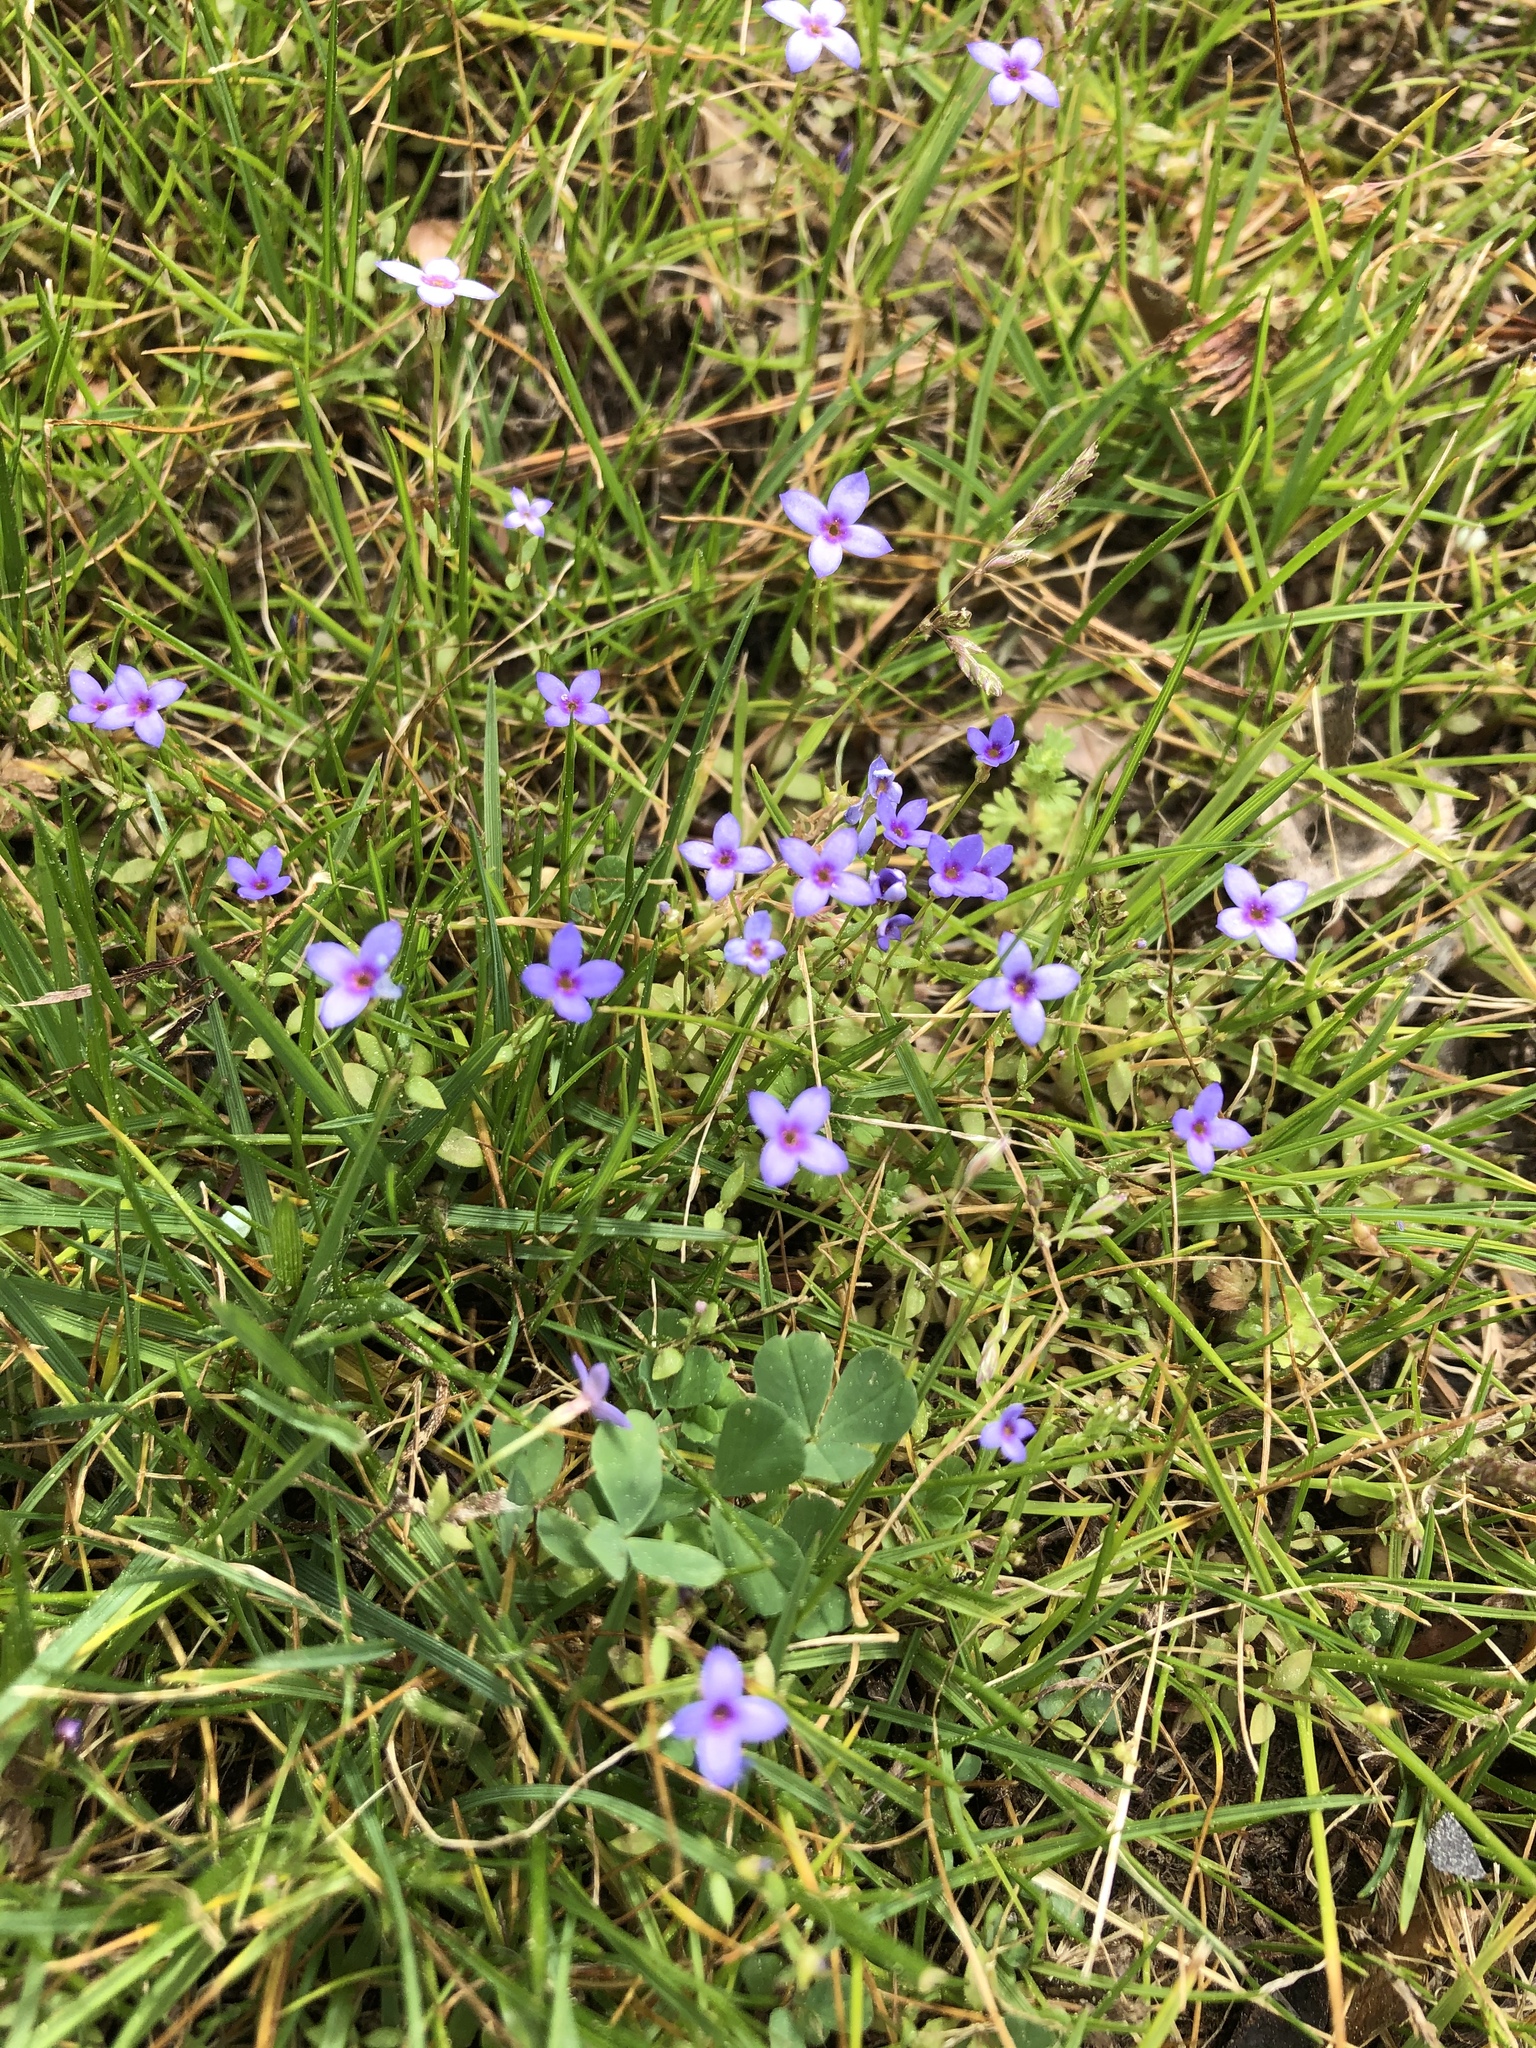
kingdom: Plantae
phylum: Tracheophyta
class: Magnoliopsida
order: Gentianales
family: Rubiaceae
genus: Houstonia
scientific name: Houstonia pusilla
